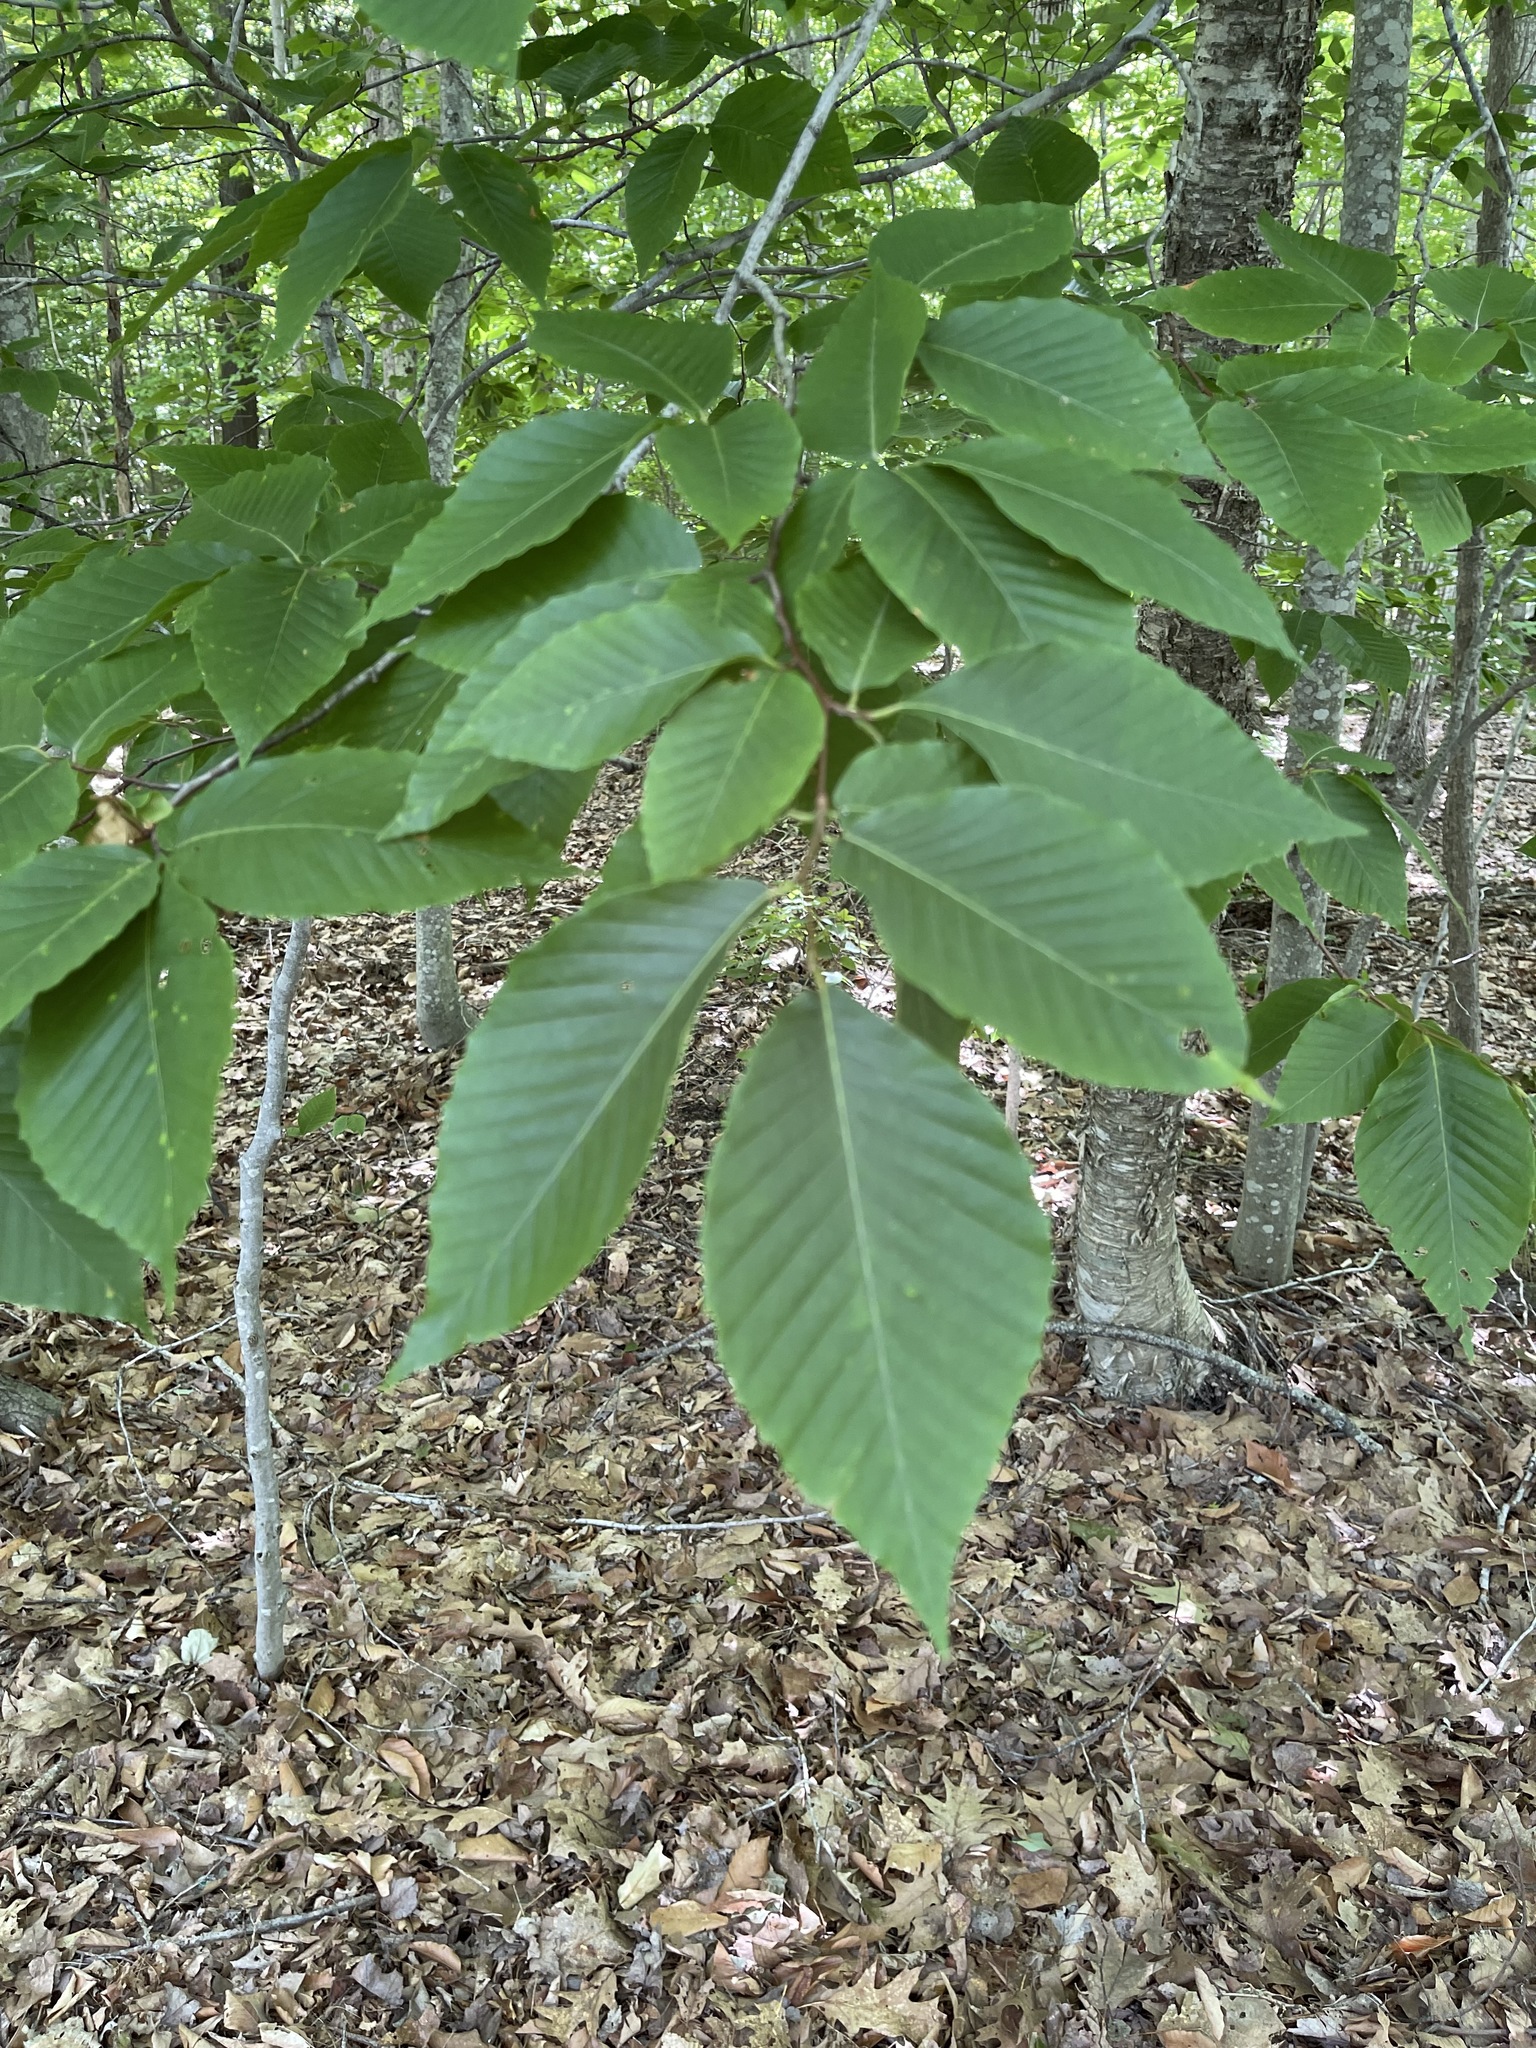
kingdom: Plantae
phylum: Tracheophyta
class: Magnoliopsida
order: Fagales
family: Fagaceae
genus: Fagus
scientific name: Fagus grandifolia
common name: American beech
